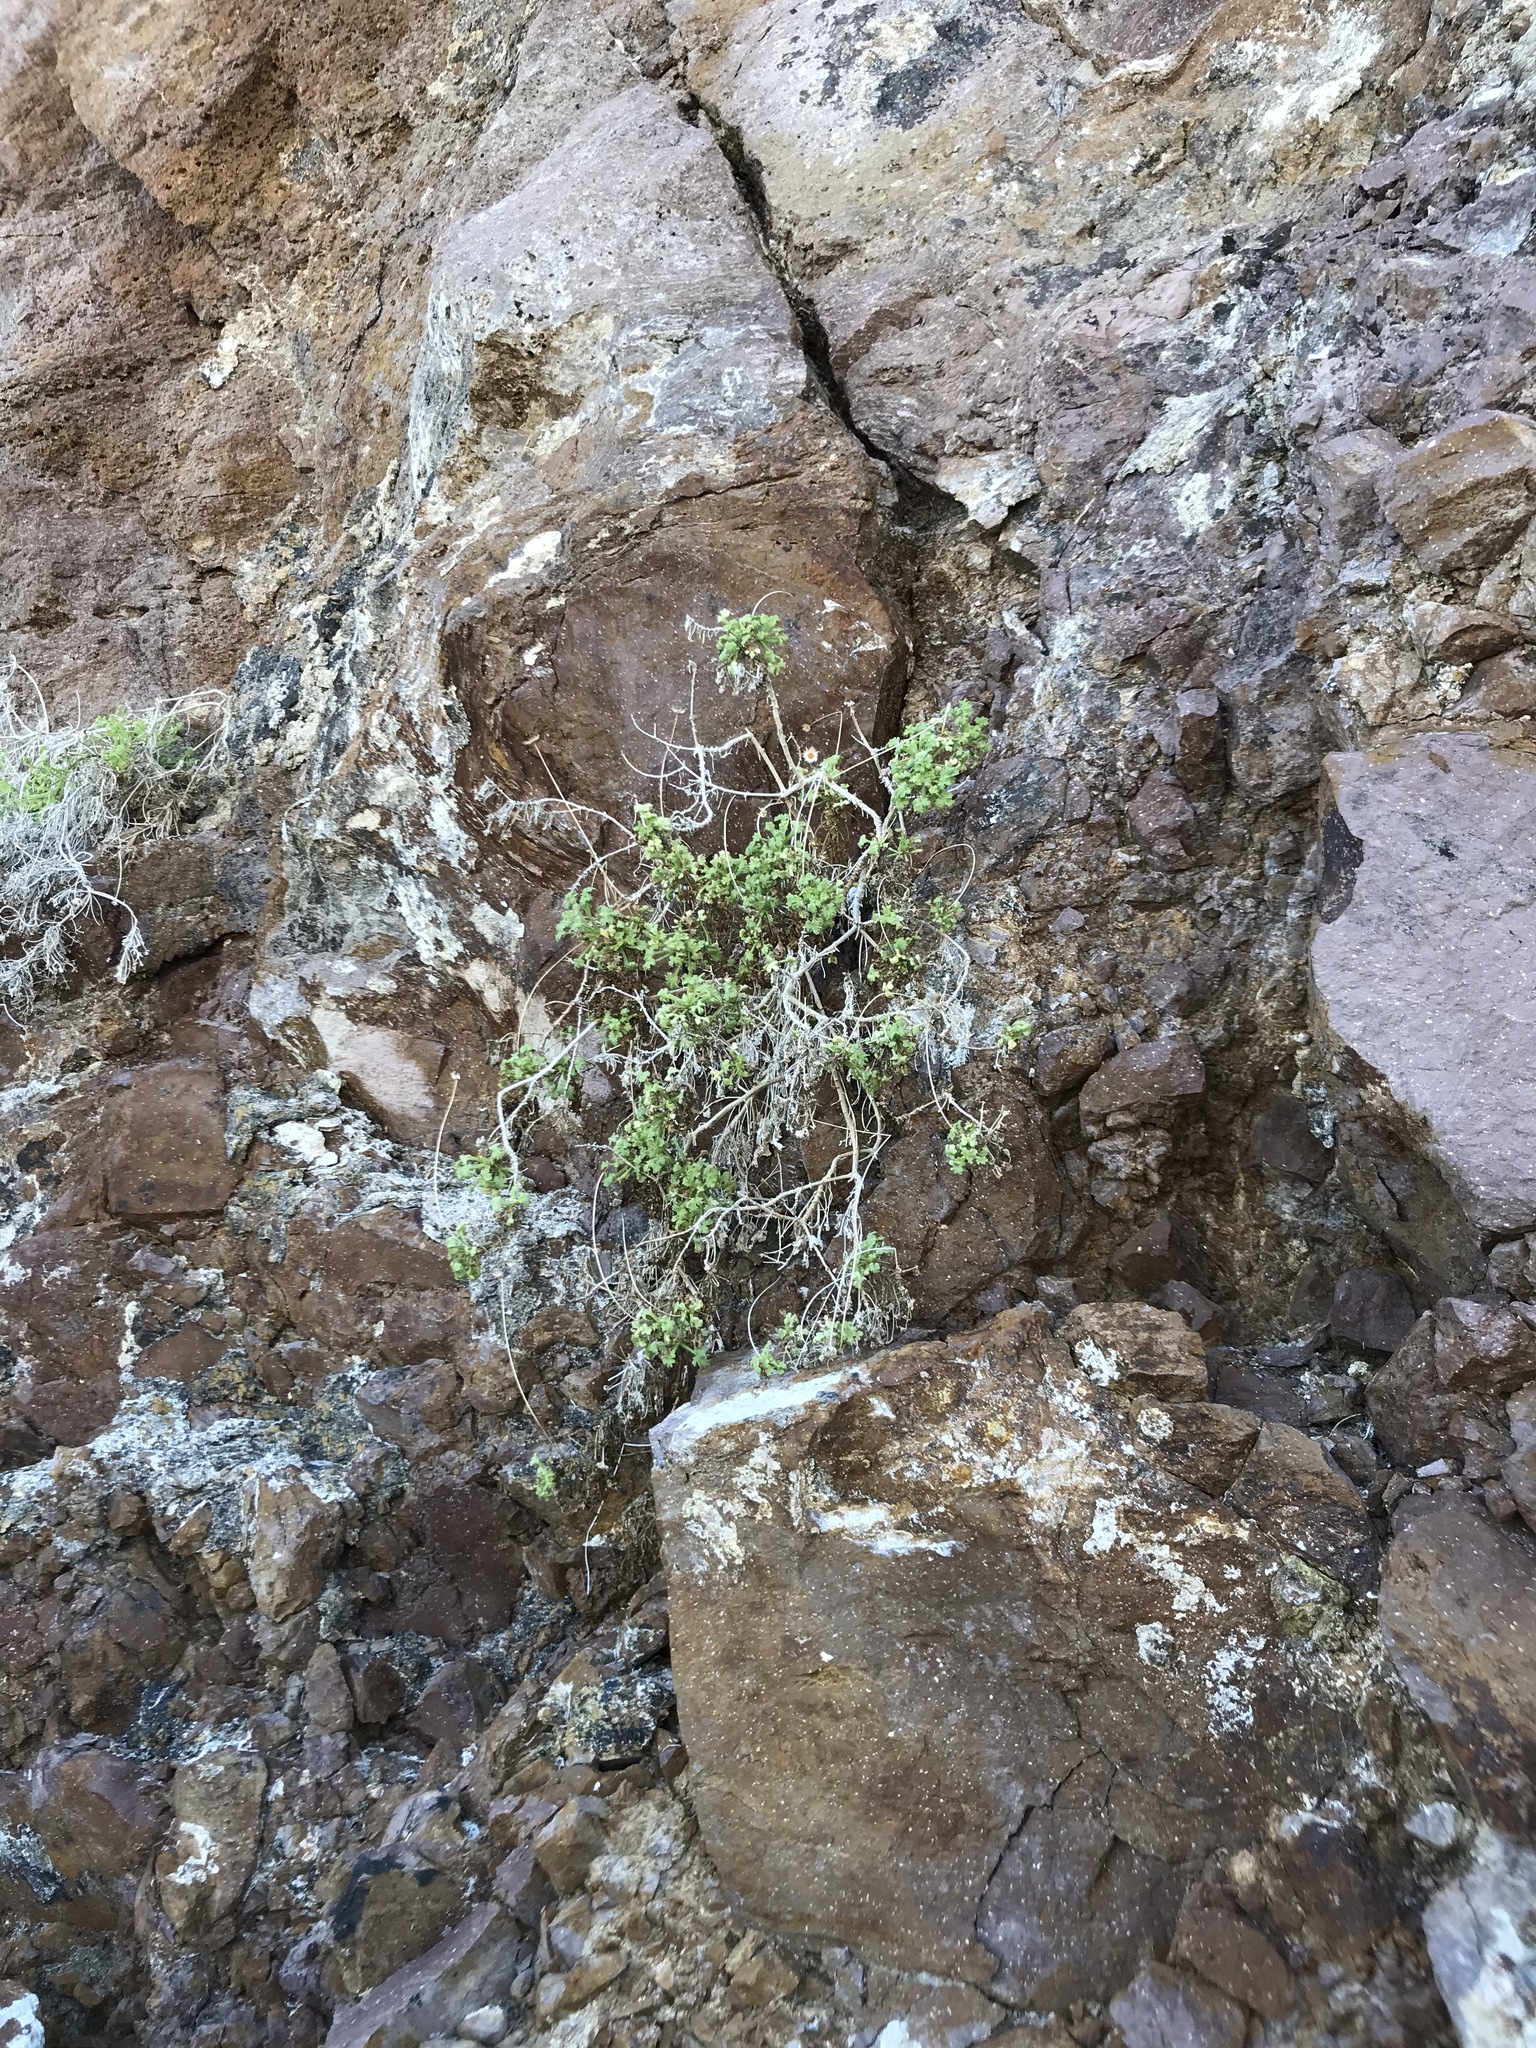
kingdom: Plantae
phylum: Tracheophyta
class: Magnoliopsida
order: Asterales
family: Asteraceae
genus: Hofmeisteria
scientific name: Hofmeisteria fasciculata
